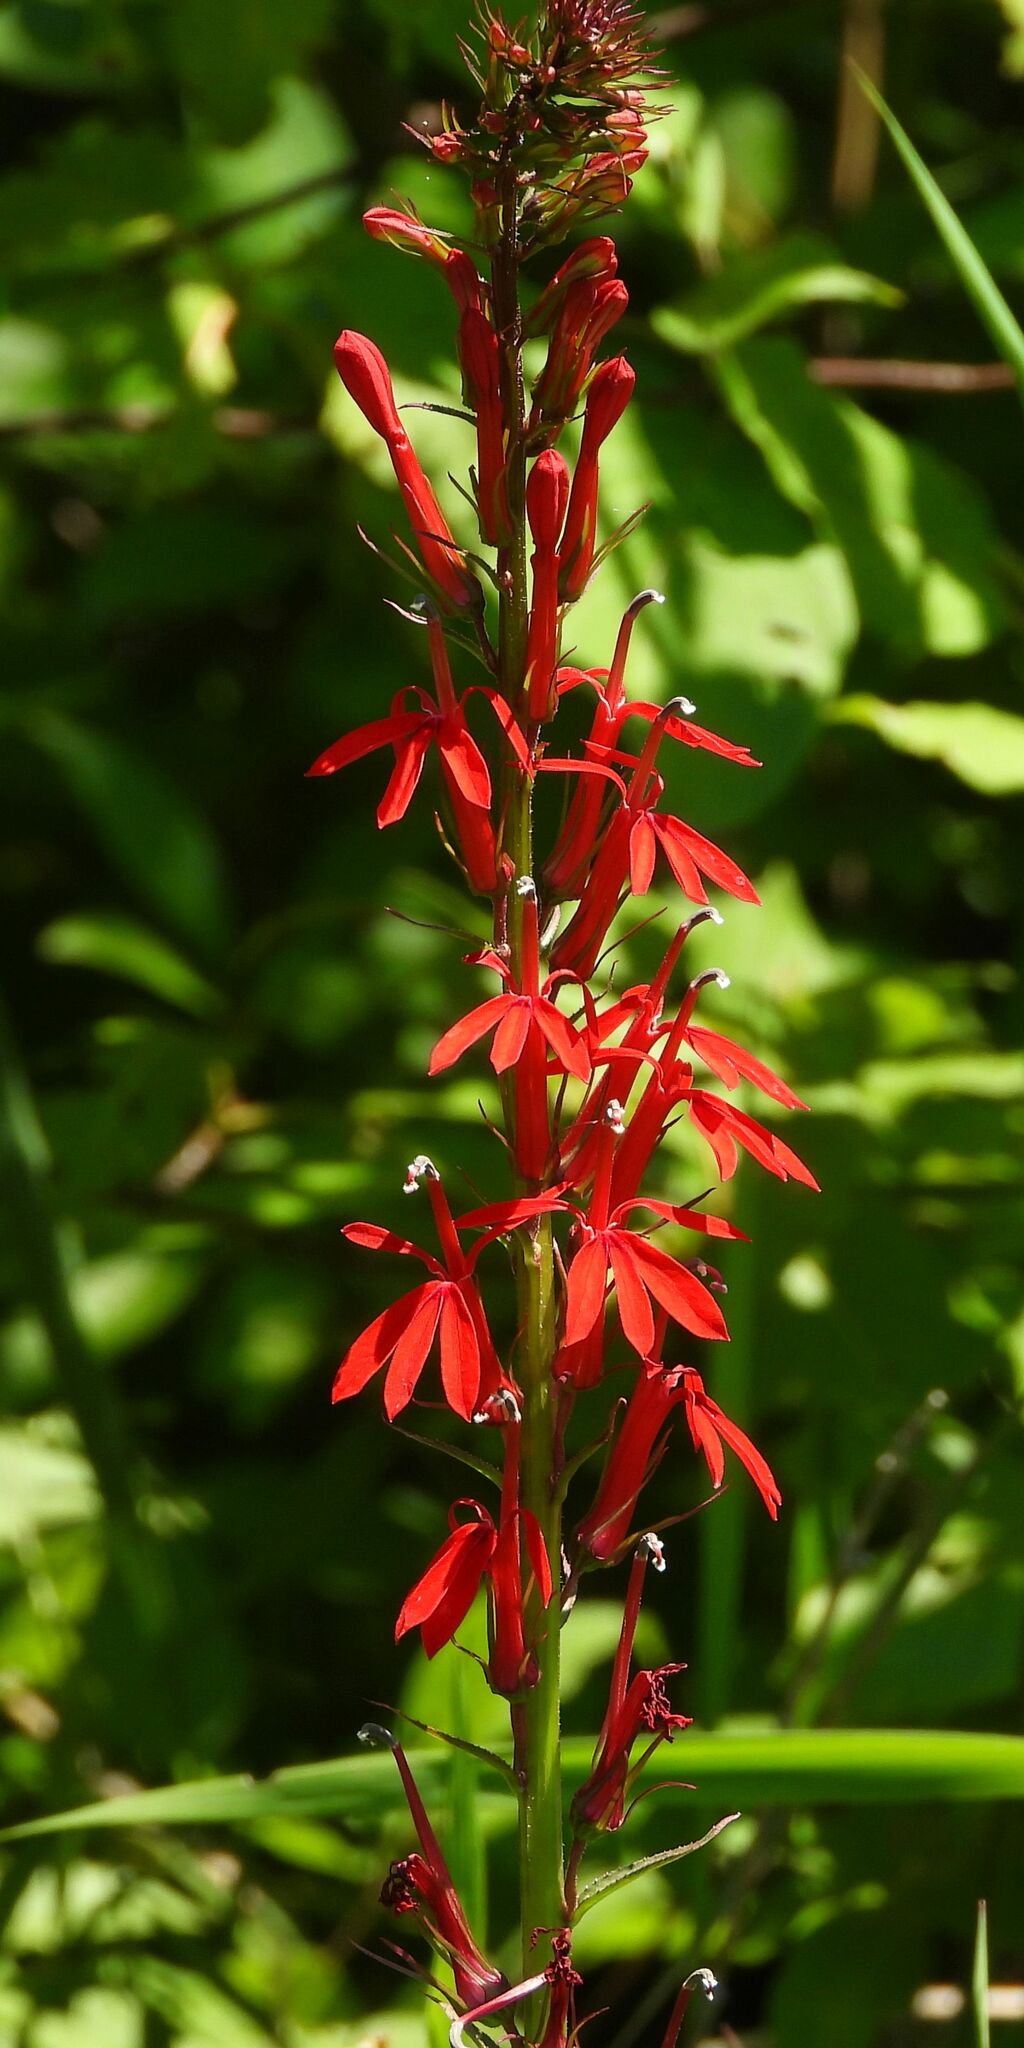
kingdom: Plantae
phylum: Tracheophyta
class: Magnoliopsida
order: Asterales
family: Campanulaceae
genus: Lobelia
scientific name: Lobelia cardinalis
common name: Cardinal flower
